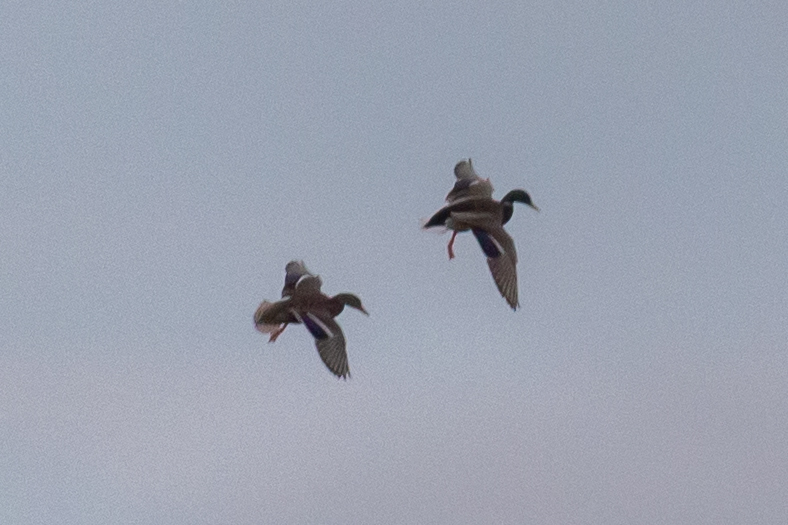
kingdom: Animalia
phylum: Chordata
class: Aves
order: Anseriformes
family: Anatidae
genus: Anas
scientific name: Anas platyrhynchos
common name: Mallard
